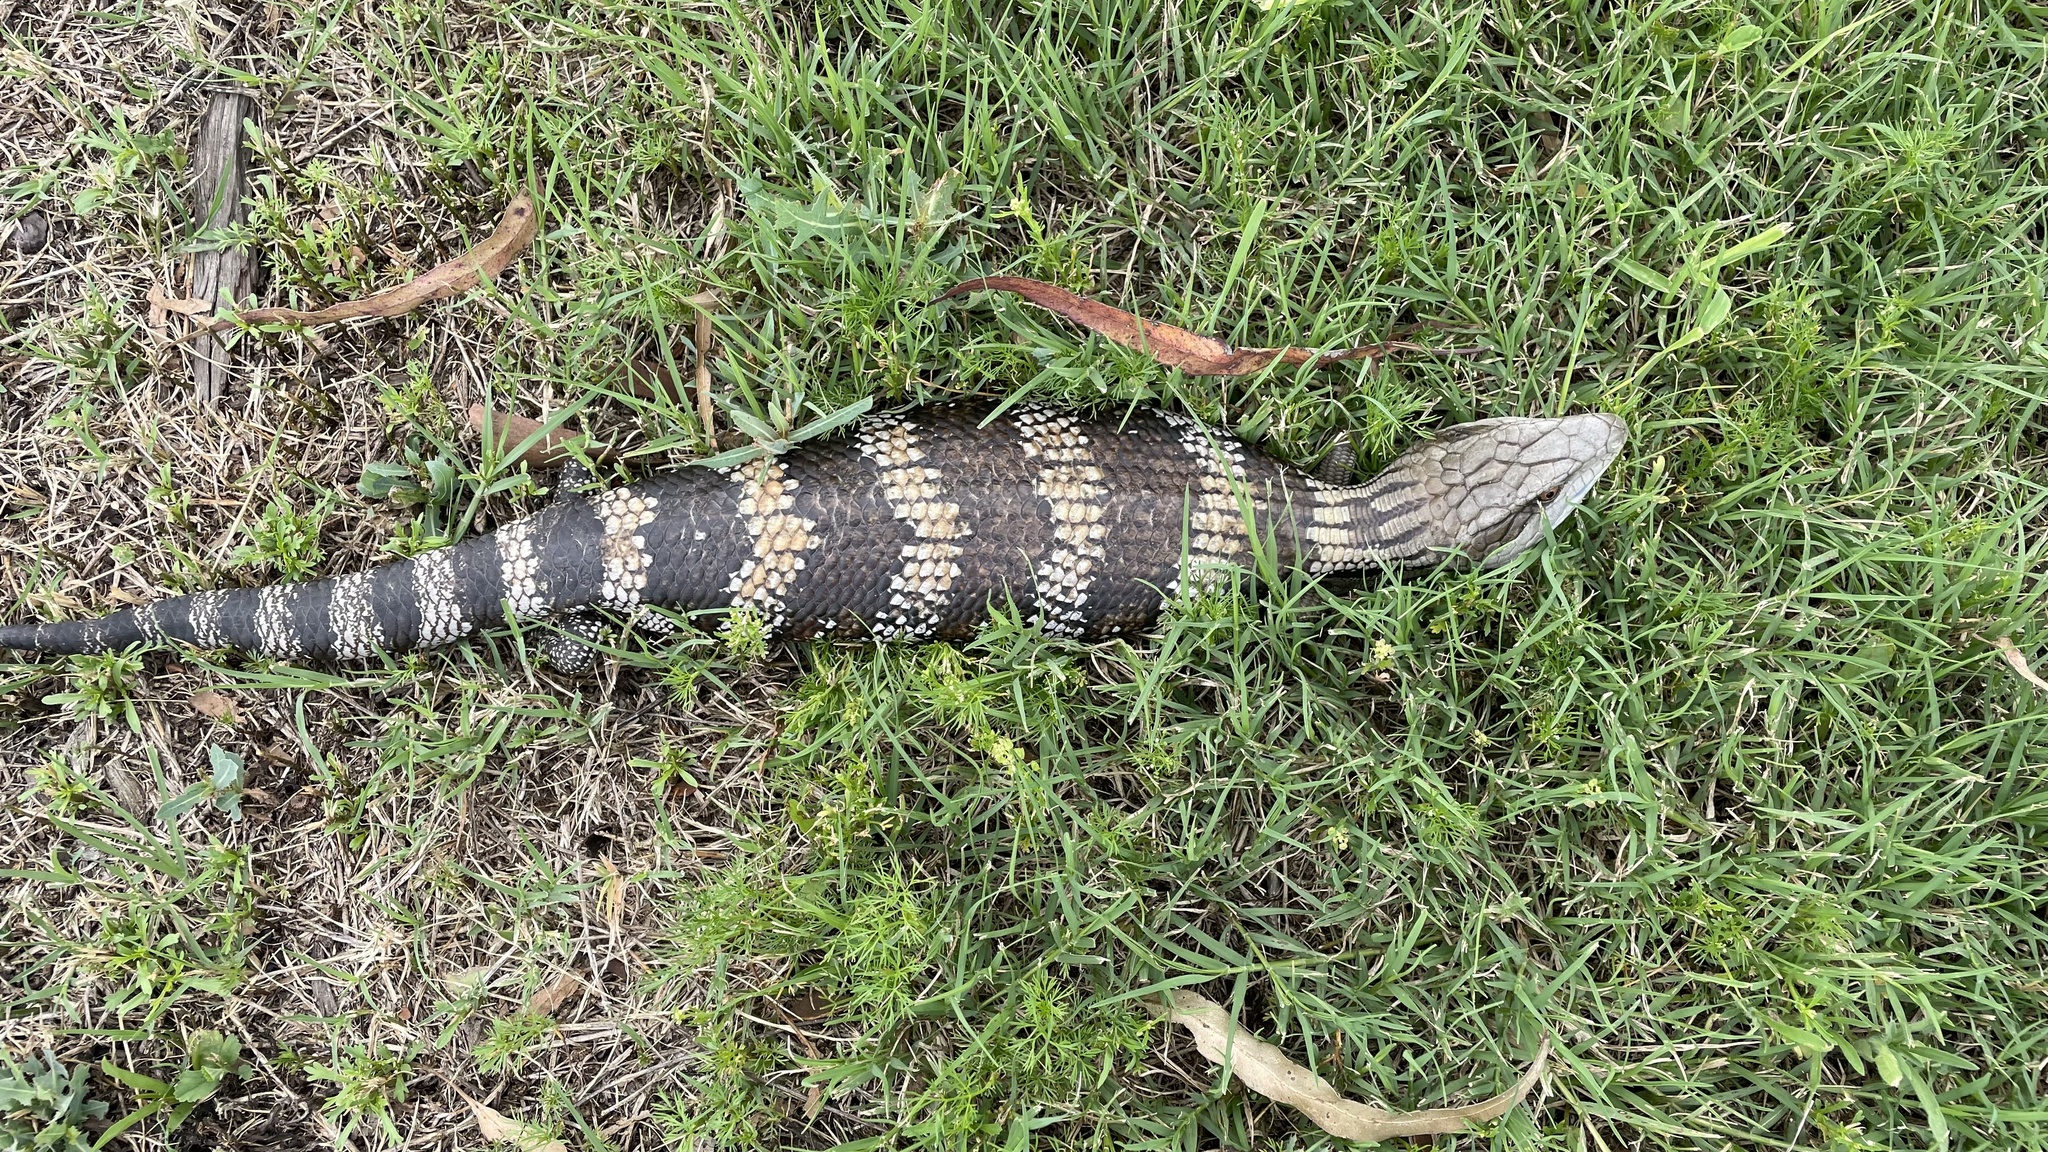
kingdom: Animalia
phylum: Chordata
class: Squamata
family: Scincidae
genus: Tiliqua
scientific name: Tiliqua scincoides
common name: Common bluetongue
